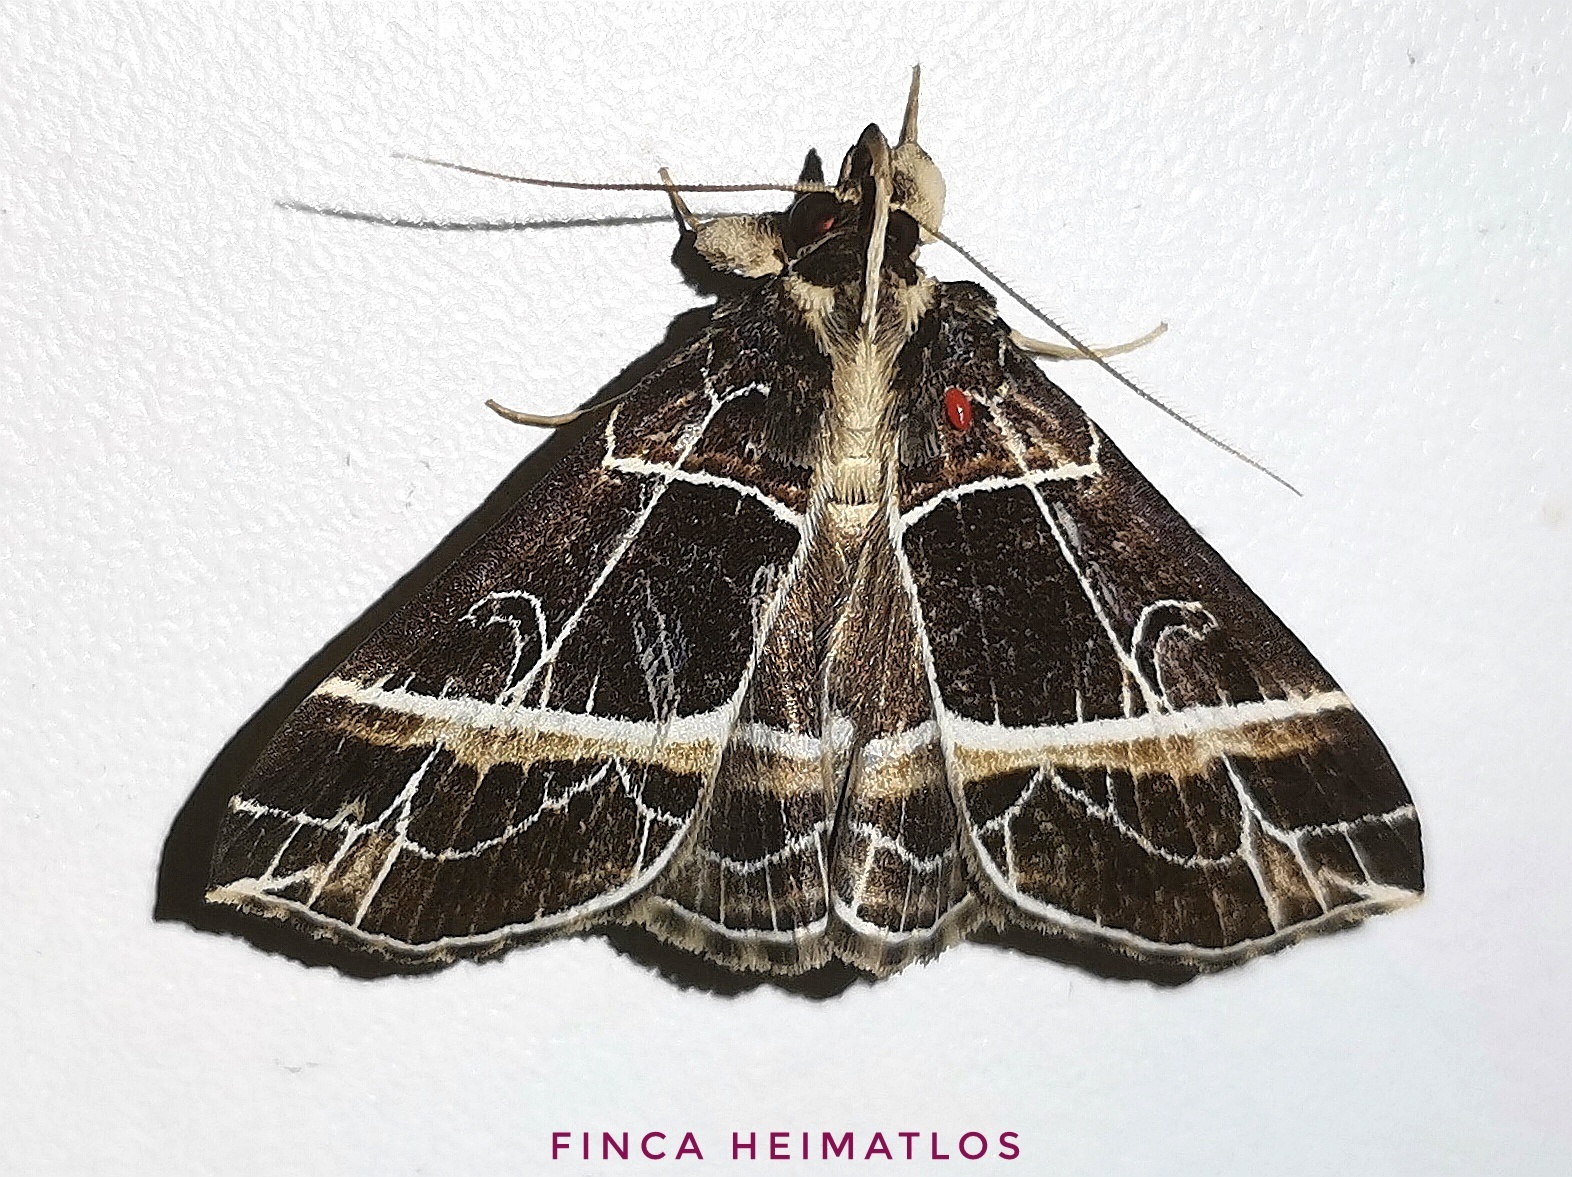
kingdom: Animalia
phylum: Arthropoda
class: Insecta
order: Lepidoptera
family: Erebidae
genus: Rejectaria
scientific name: Rejectaria niciasalis
